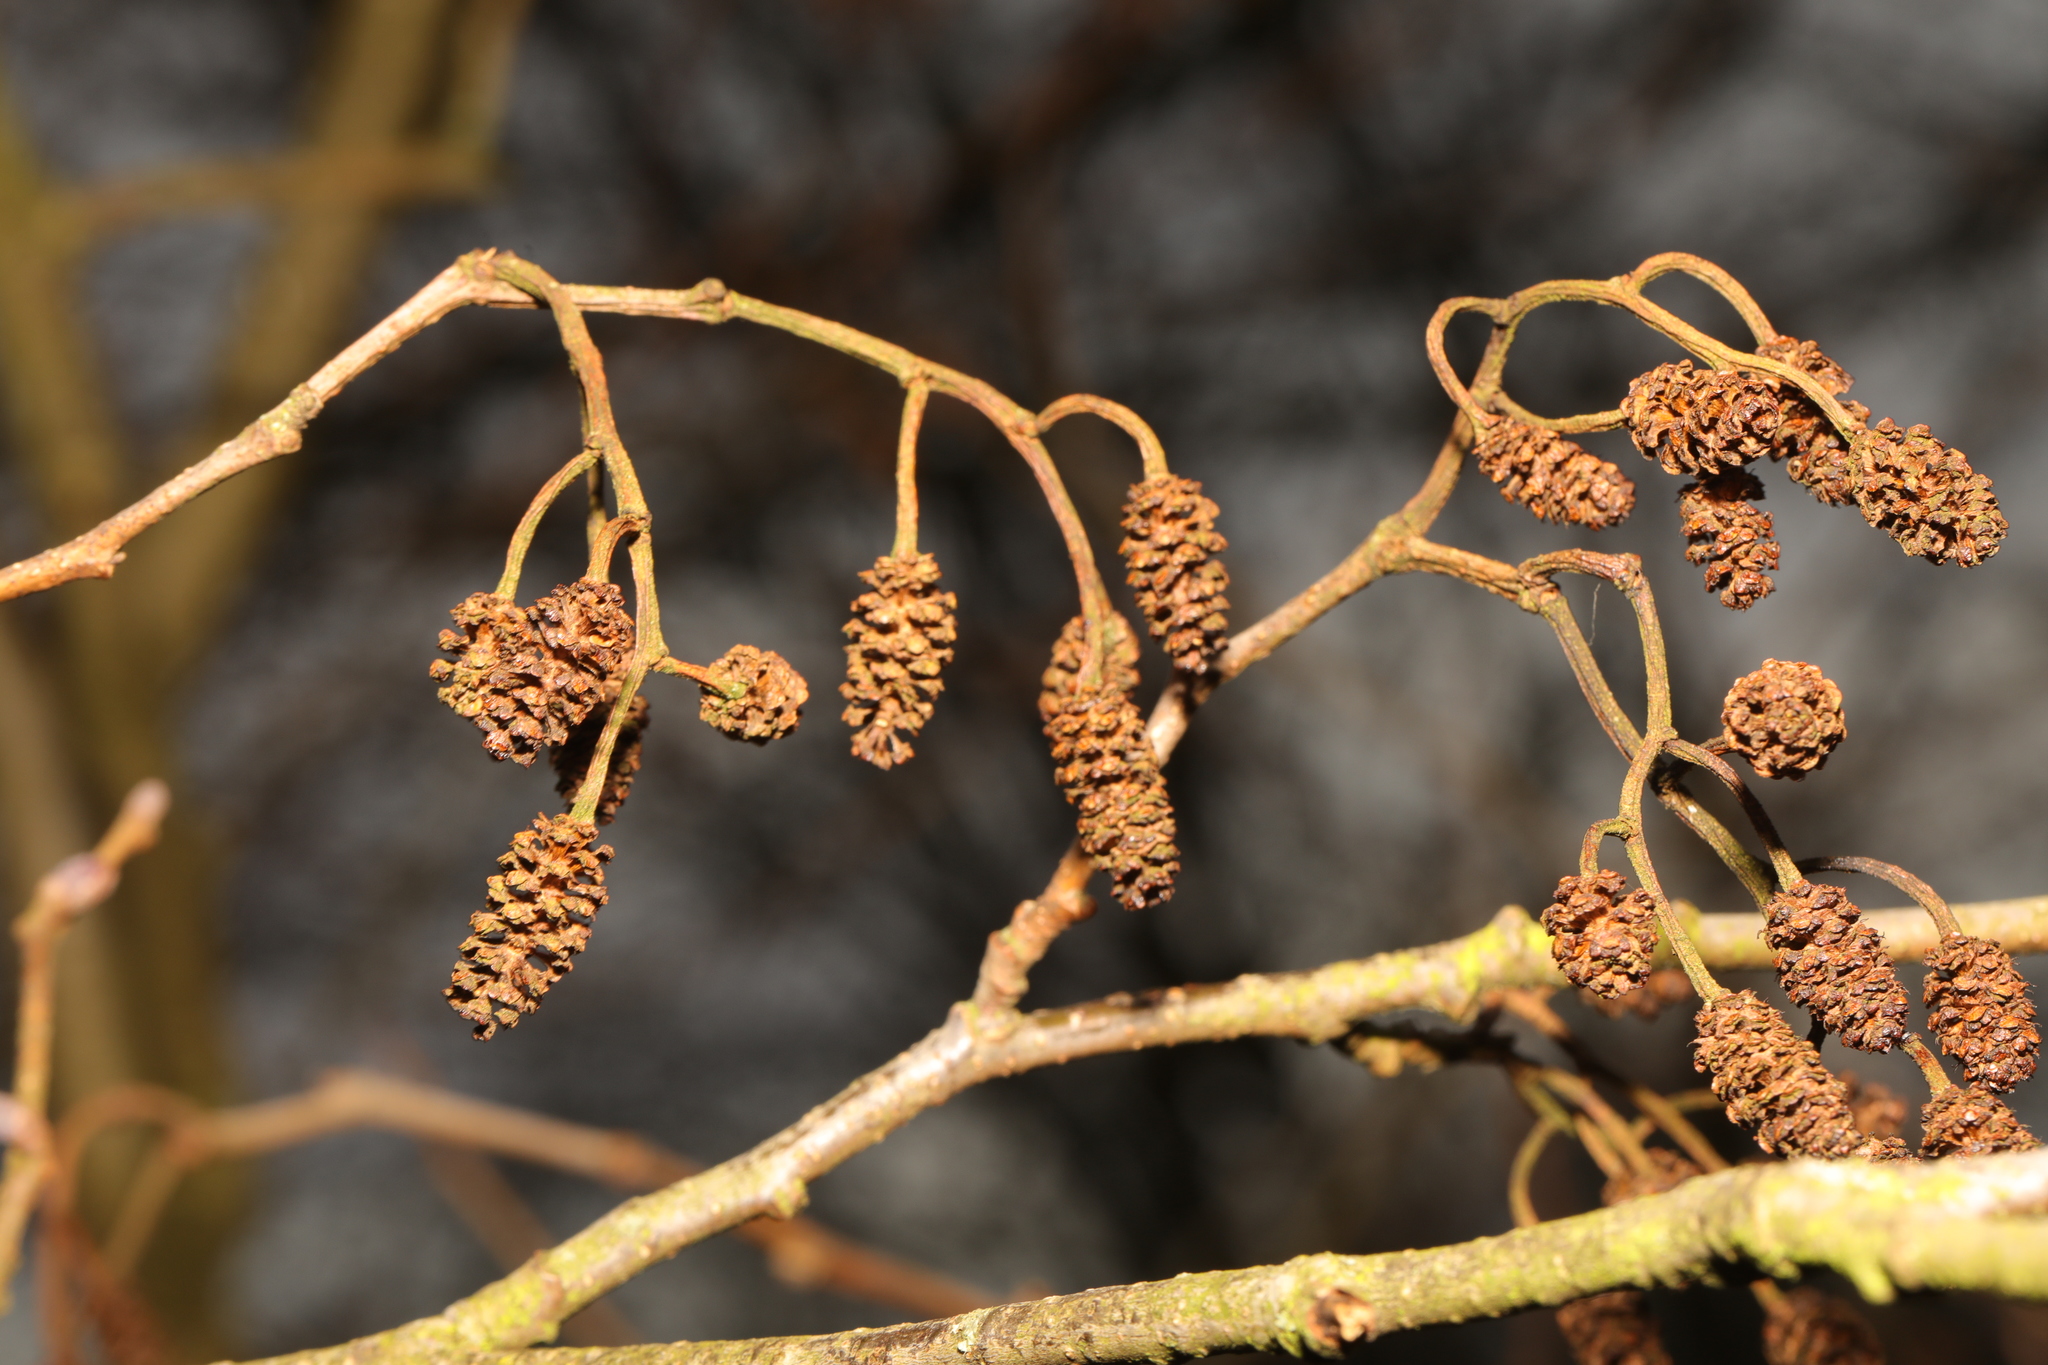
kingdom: Plantae
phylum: Tracheophyta
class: Magnoliopsida
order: Fagales
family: Betulaceae
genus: Alnus
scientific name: Alnus glutinosa
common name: Black alder
